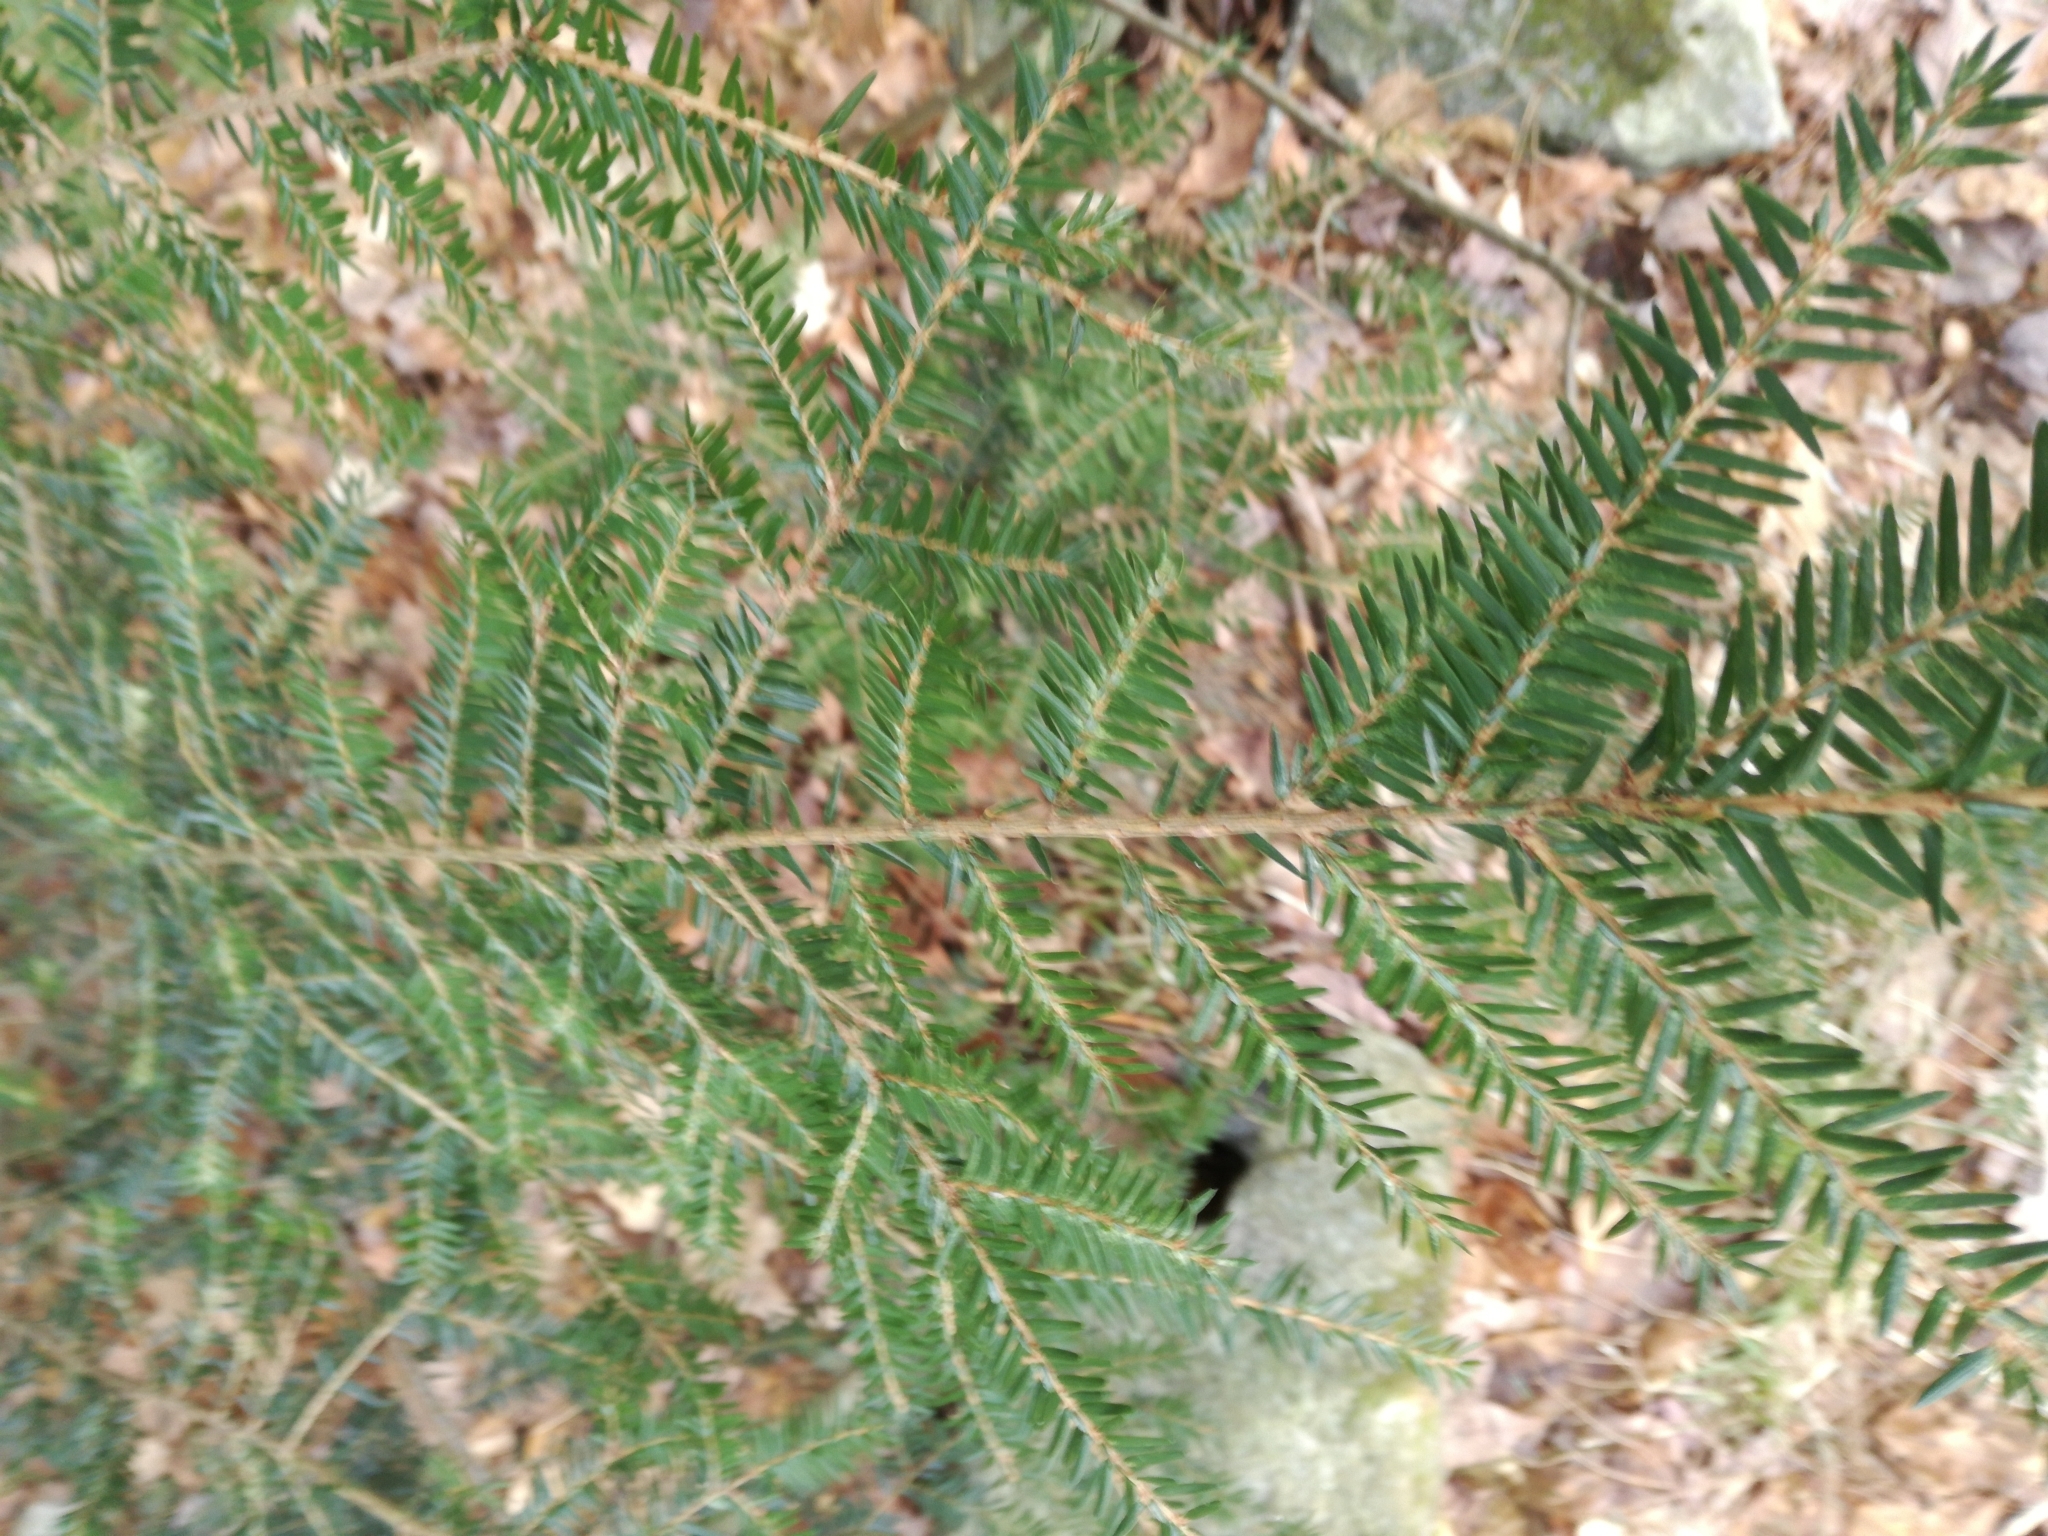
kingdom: Plantae
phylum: Tracheophyta
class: Pinopsida
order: Pinales
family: Pinaceae
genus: Tsuga
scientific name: Tsuga canadensis
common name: Eastern hemlock
